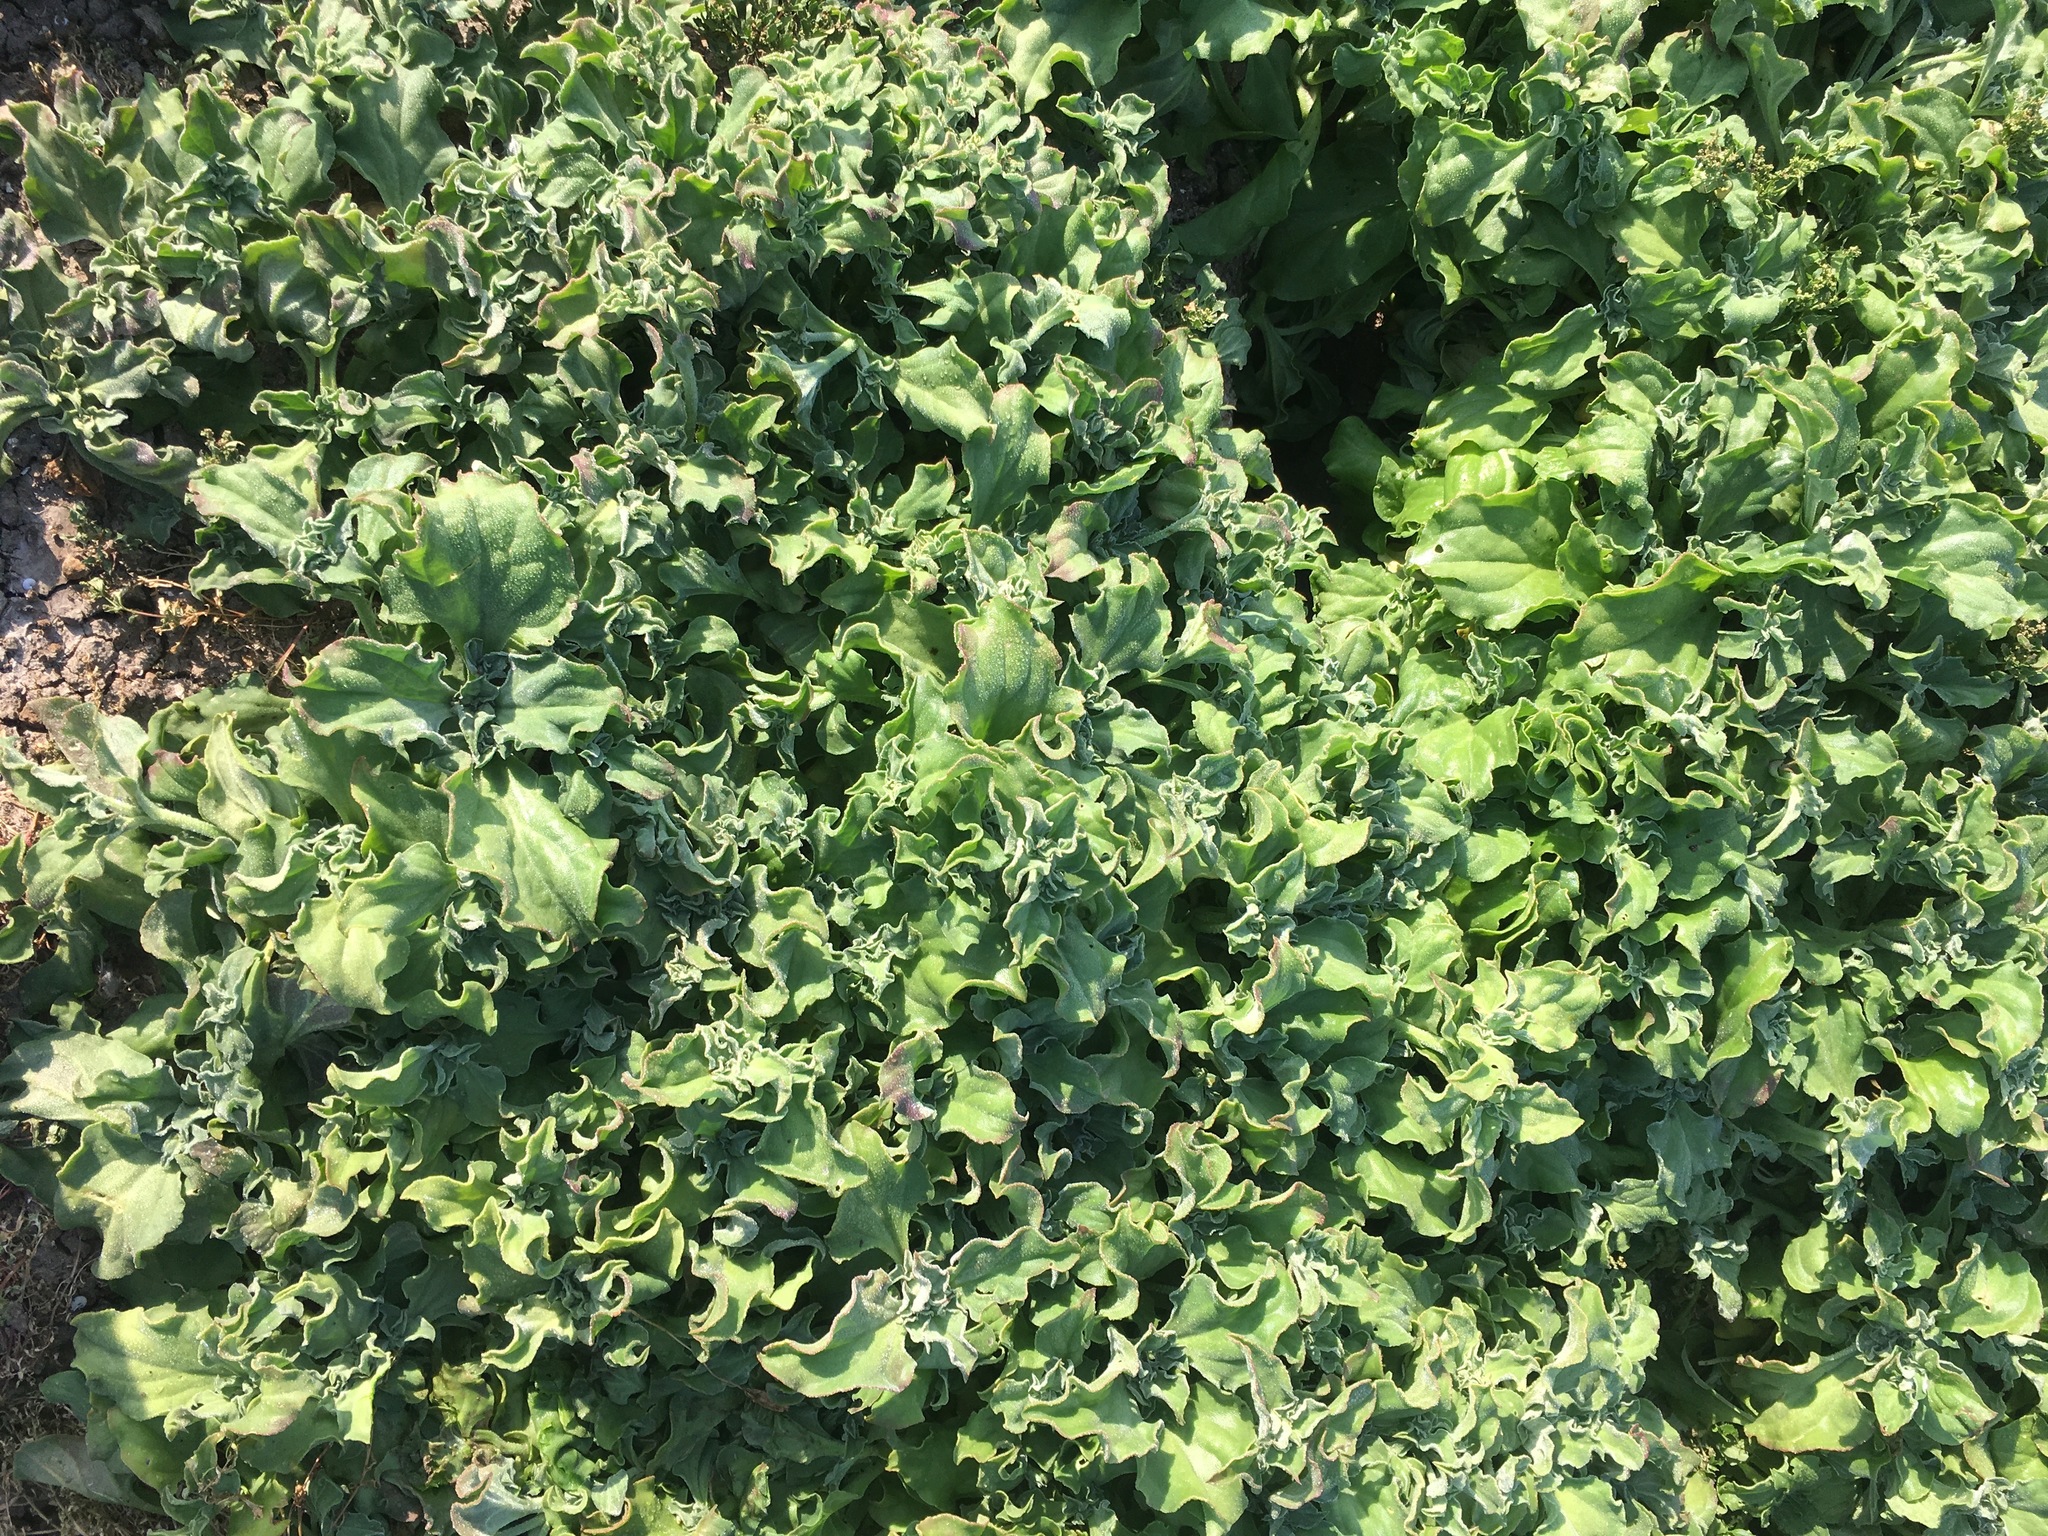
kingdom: Plantae
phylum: Tracheophyta
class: Magnoliopsida
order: Caryophyllales
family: Aizoaceae
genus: Mesembryanthemum
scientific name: Mesembryanthemum crystallinum
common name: Common iceplant
